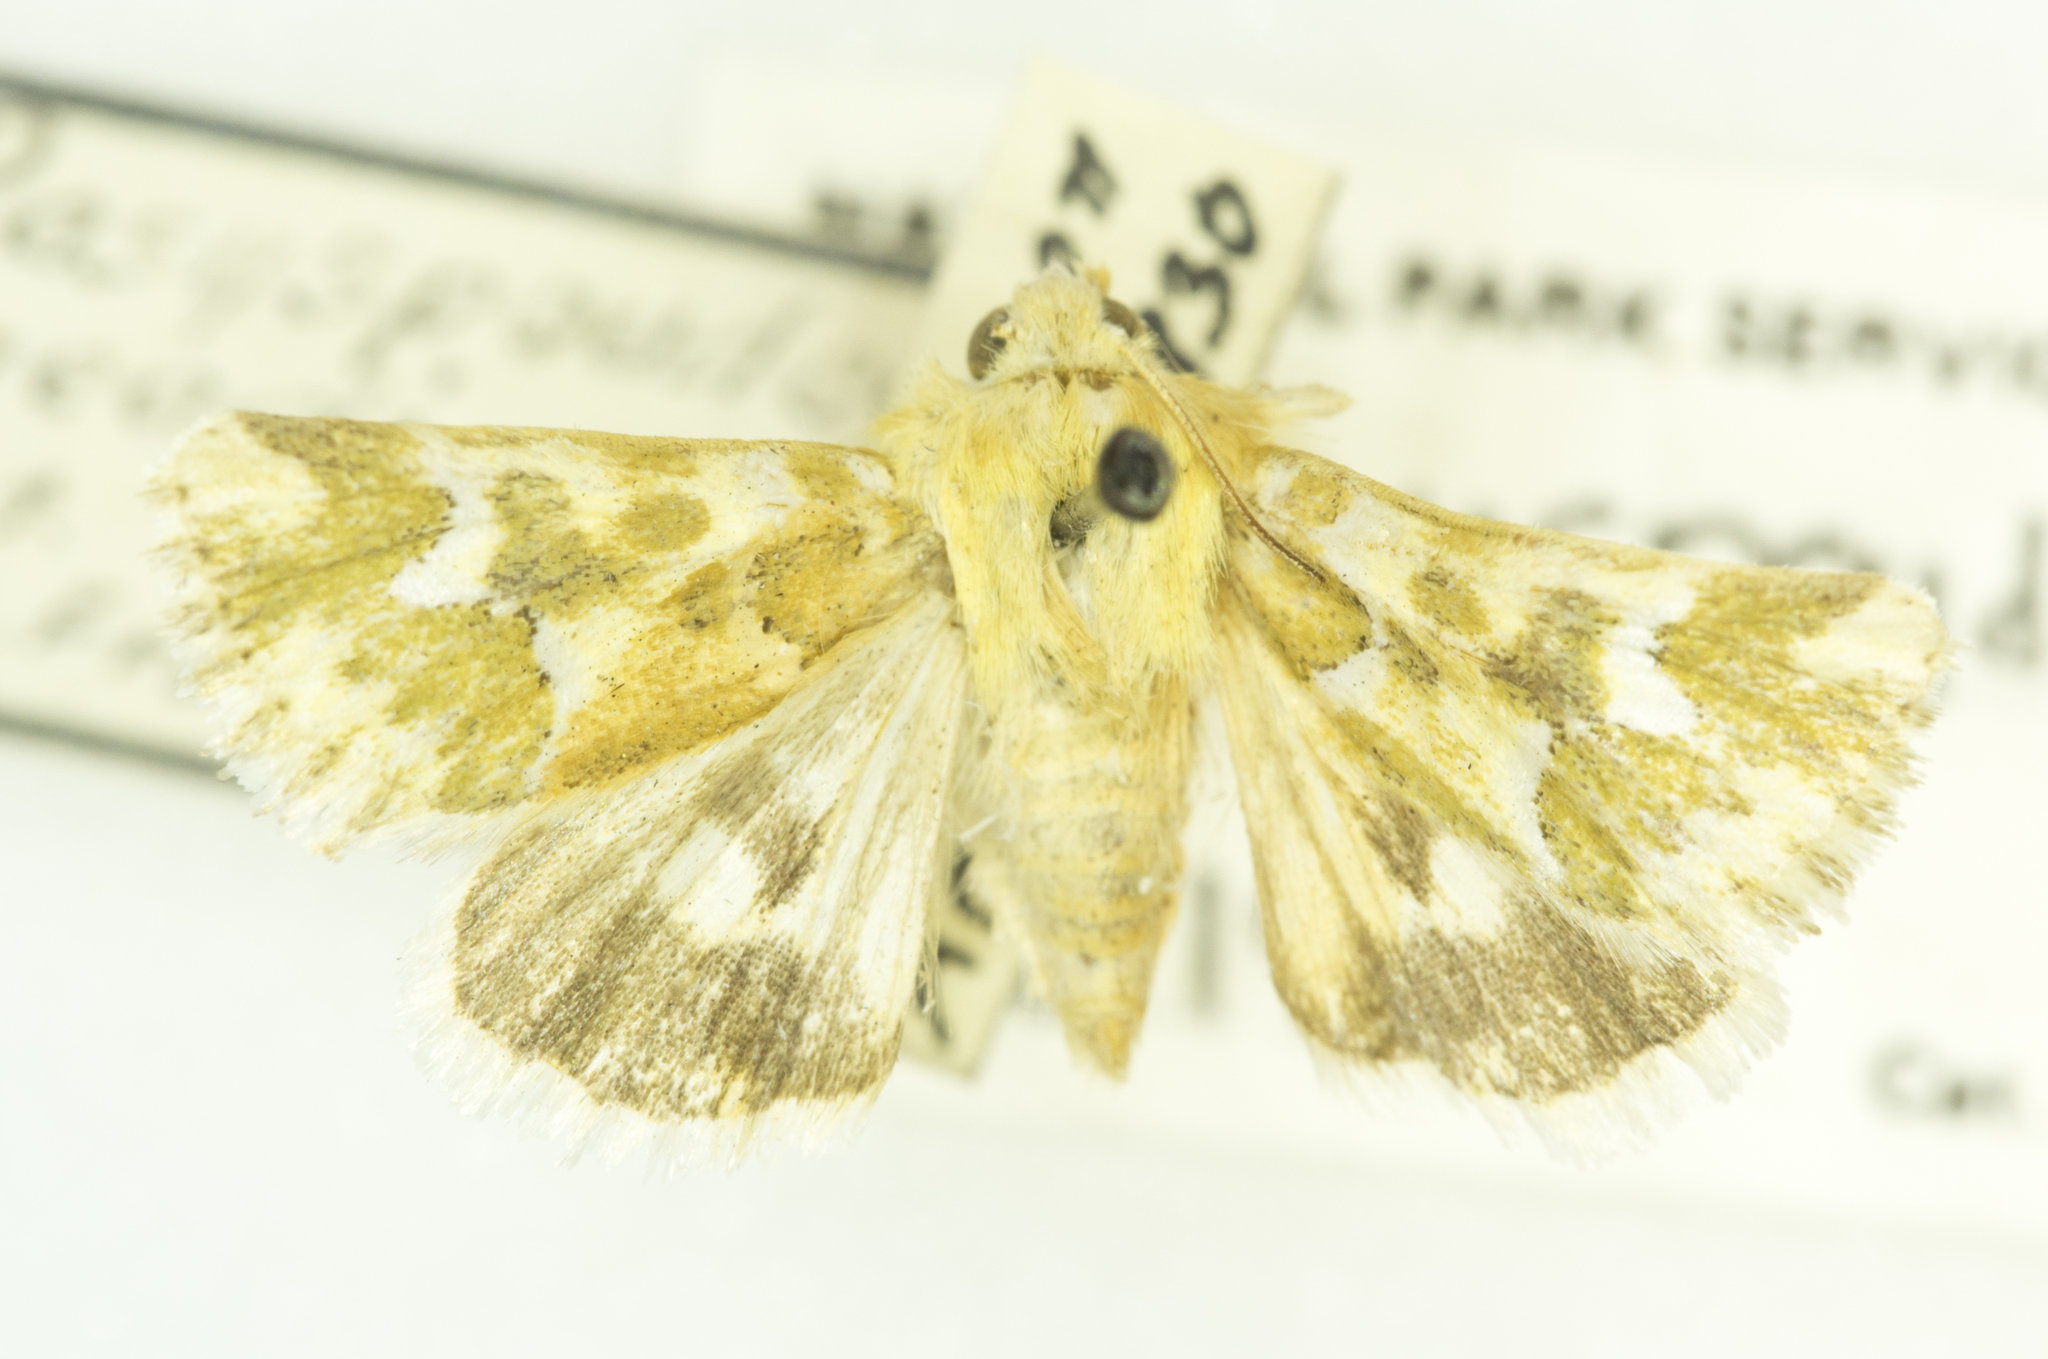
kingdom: Animalia
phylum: Arthropoda
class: Insecta
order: Lepidoptera
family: Noctuidae
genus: Schinia
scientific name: Schinia meadi
